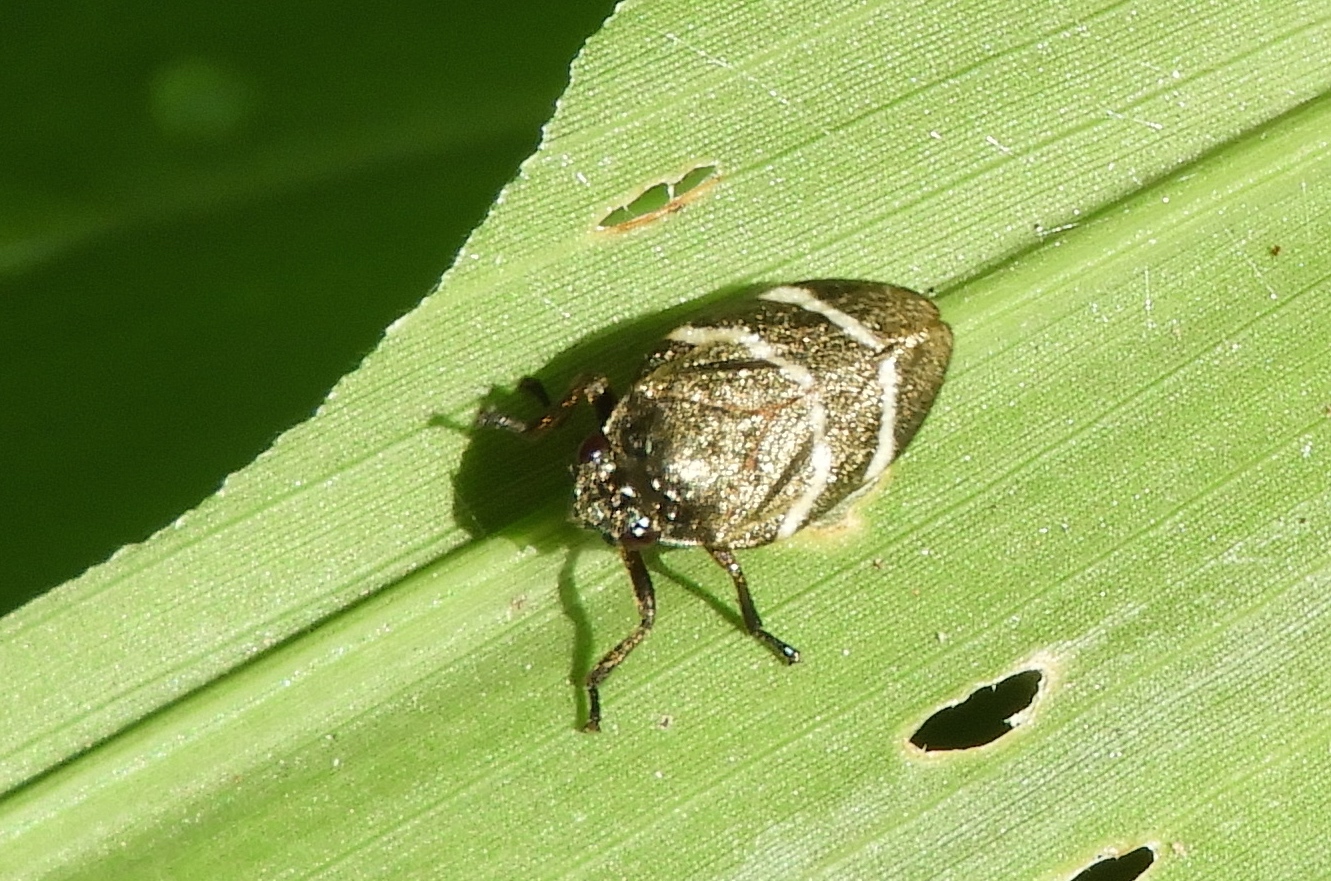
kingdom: Animalia
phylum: Arthropoda
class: Insecta
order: Hemiptera
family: Cercopidae
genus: Aeneolamia
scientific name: Aeneolamia albofasciata
